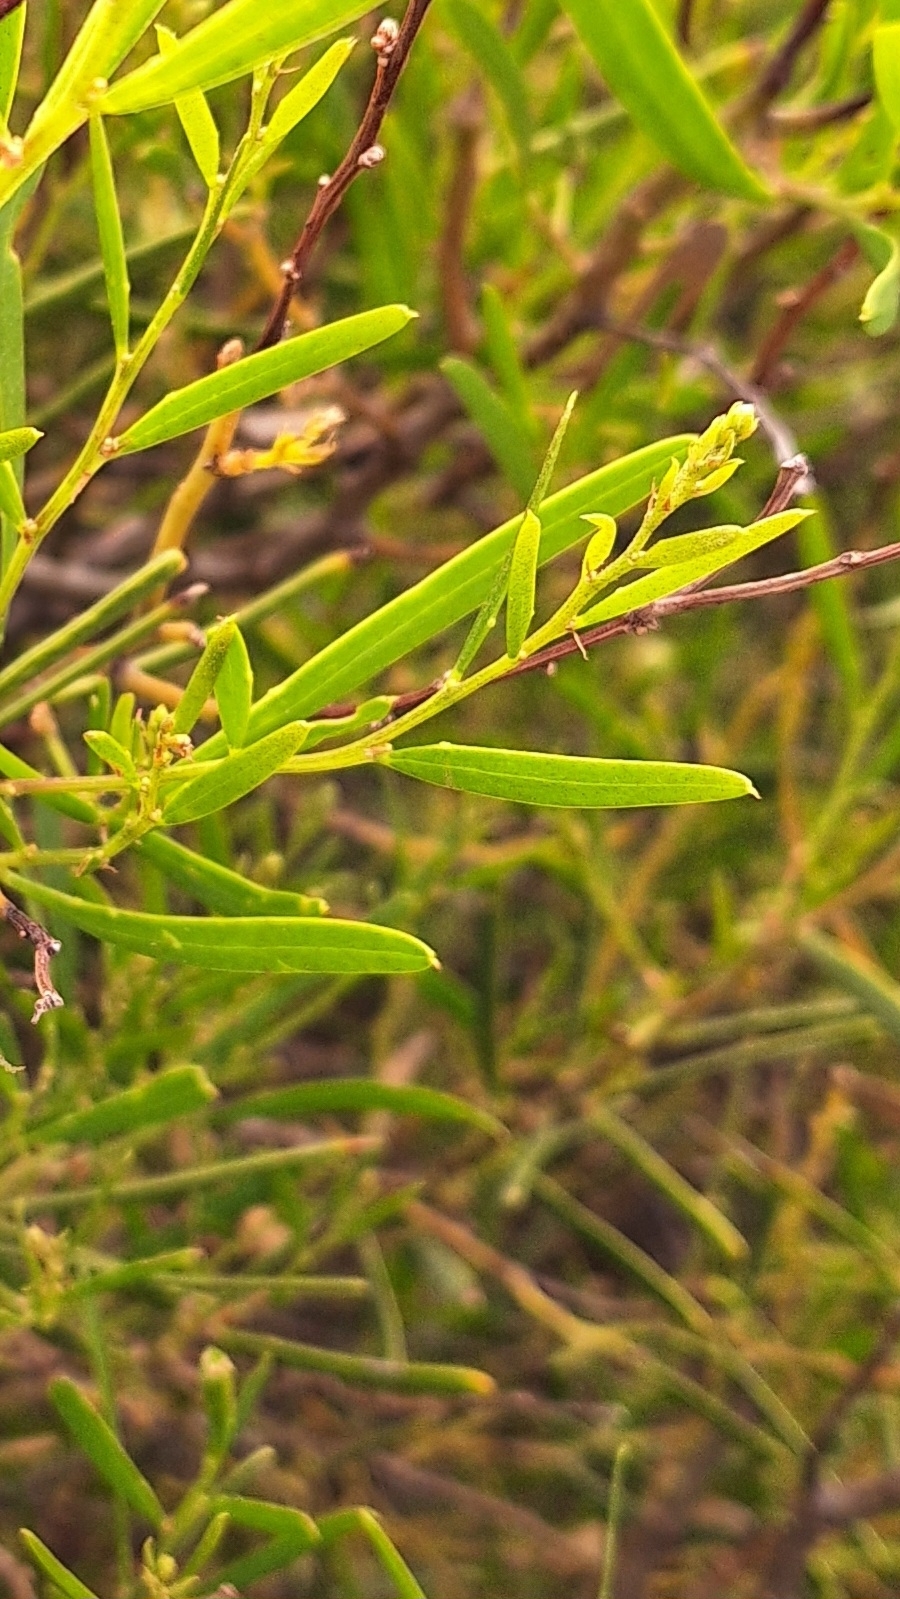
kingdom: Plantae
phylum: Tracheophyta
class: Magnoliopsida
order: Fabales
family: Fabaceae
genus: Acacia
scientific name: Acacia ligulata
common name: Dune wattle
